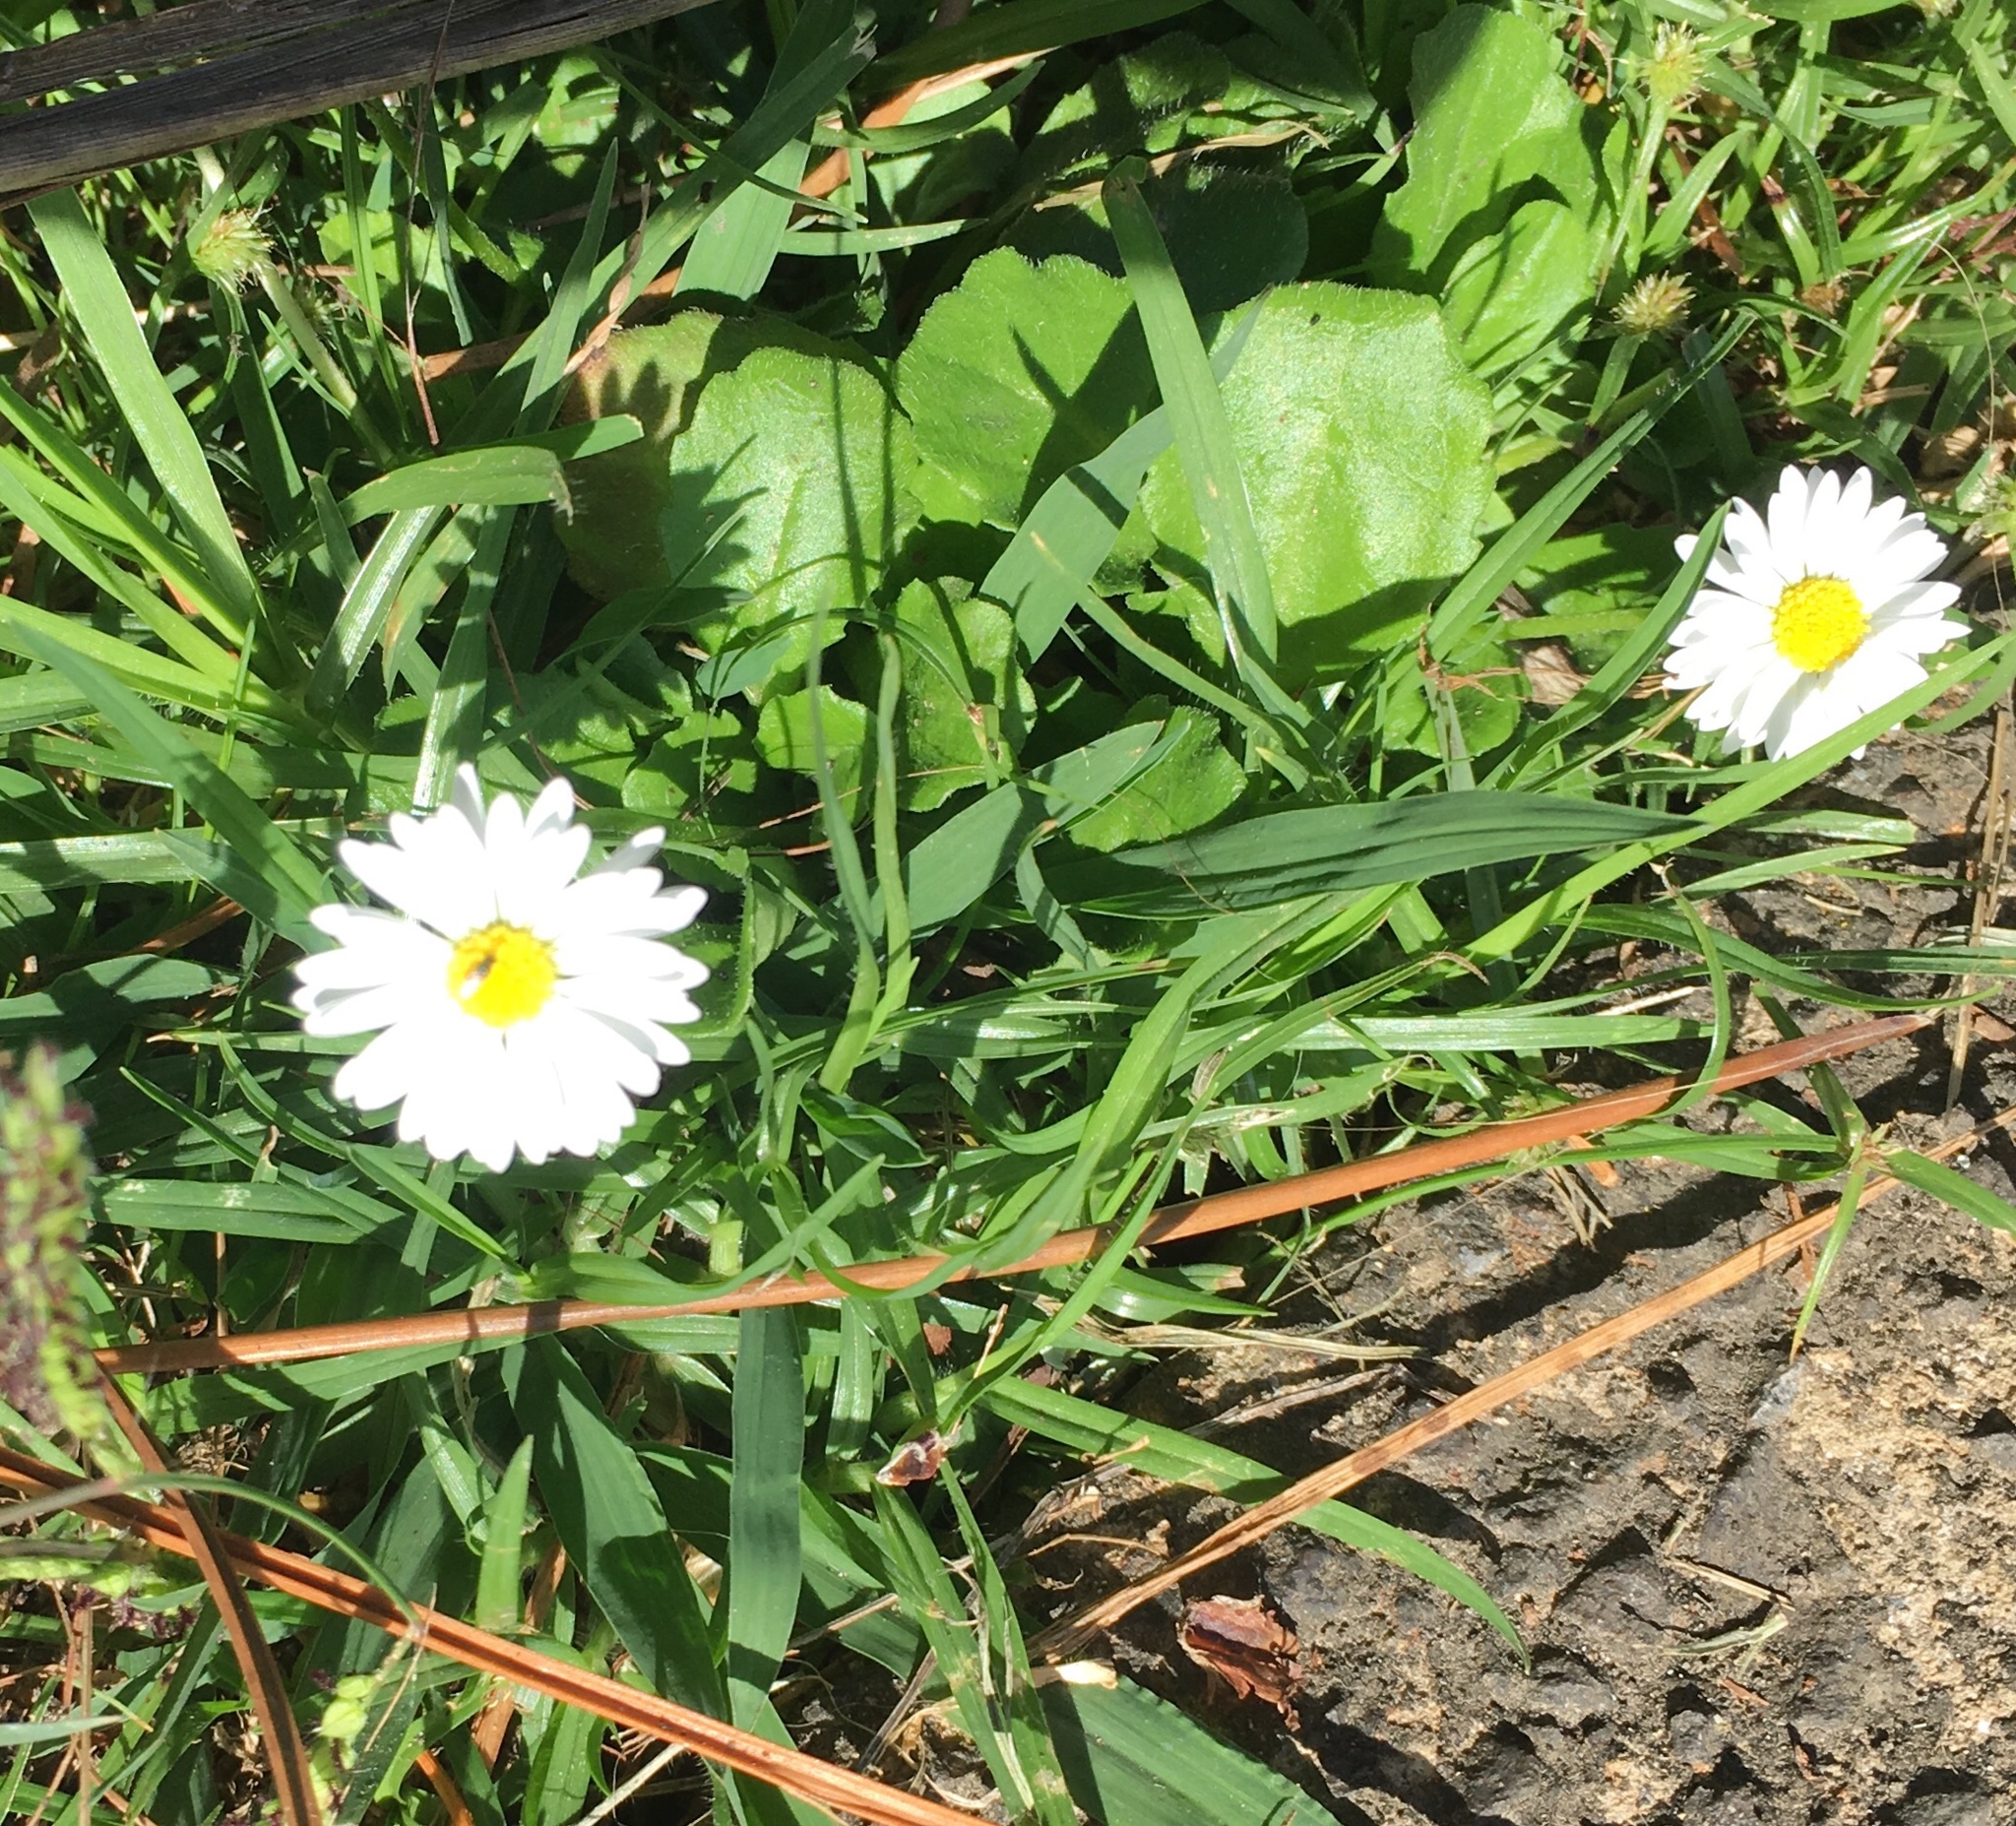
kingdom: Plantae
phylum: Tracheophyta
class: Magnoliopsida
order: Asterales
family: Asteraceae
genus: Bellis
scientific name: Bellis perennis
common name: Lawndaisy
